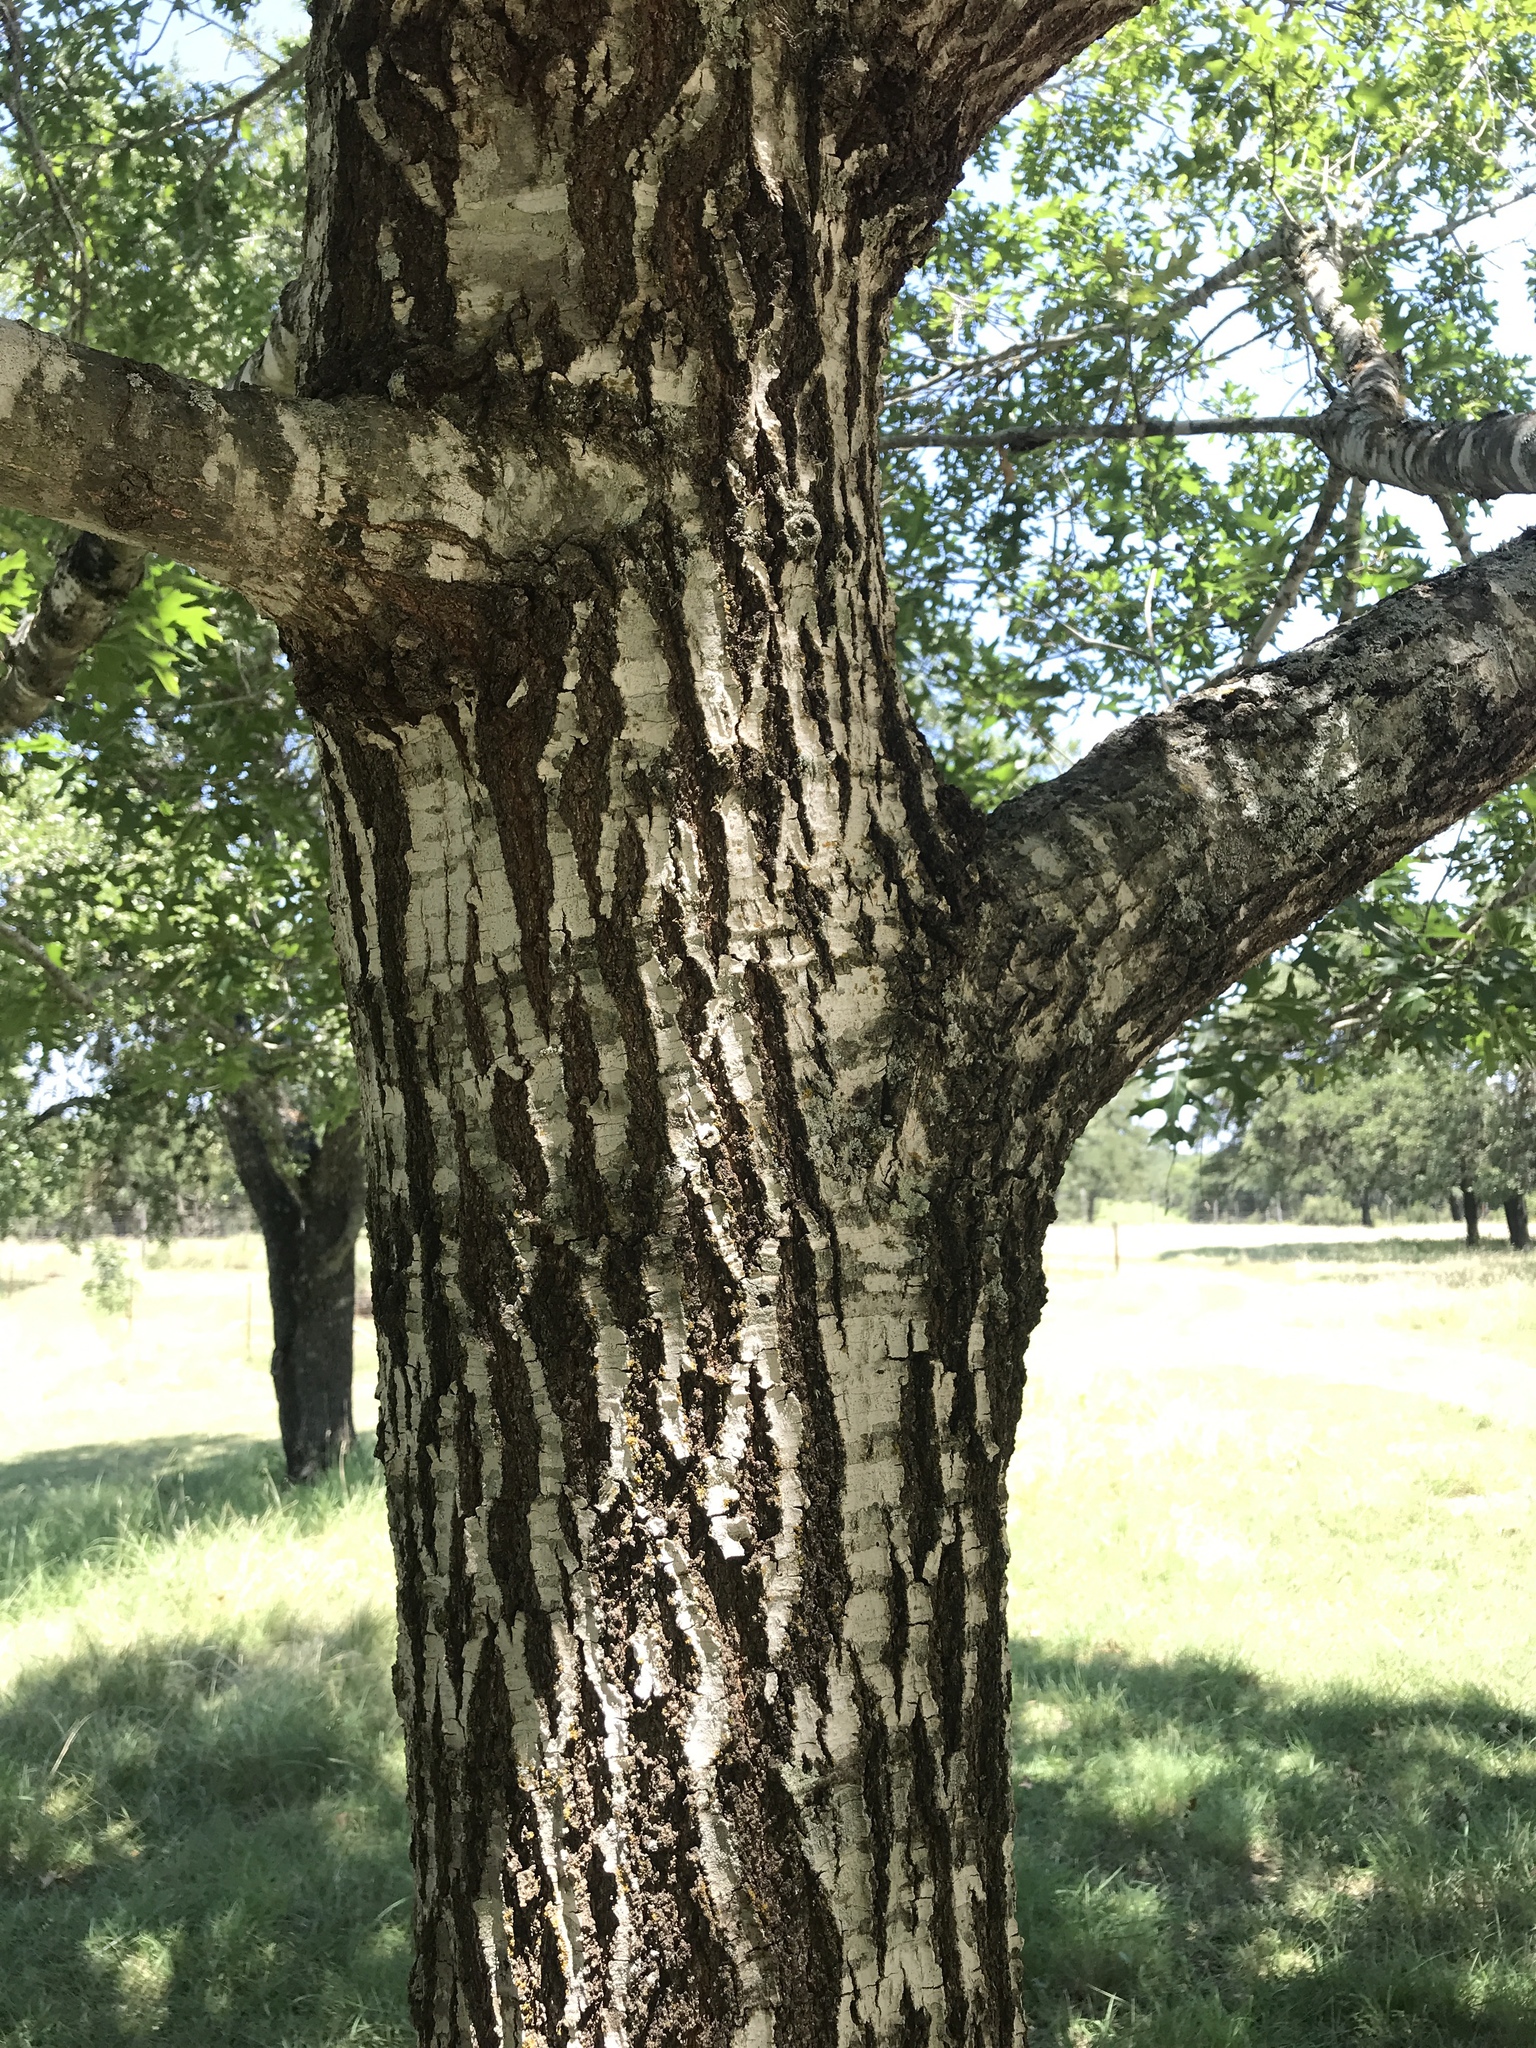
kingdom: Plantae
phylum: Tracheophyta
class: Magnoliopsida
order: Fagales
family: Fagaceae
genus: Quercus
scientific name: Quercus buckleyi
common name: Buckley oak
